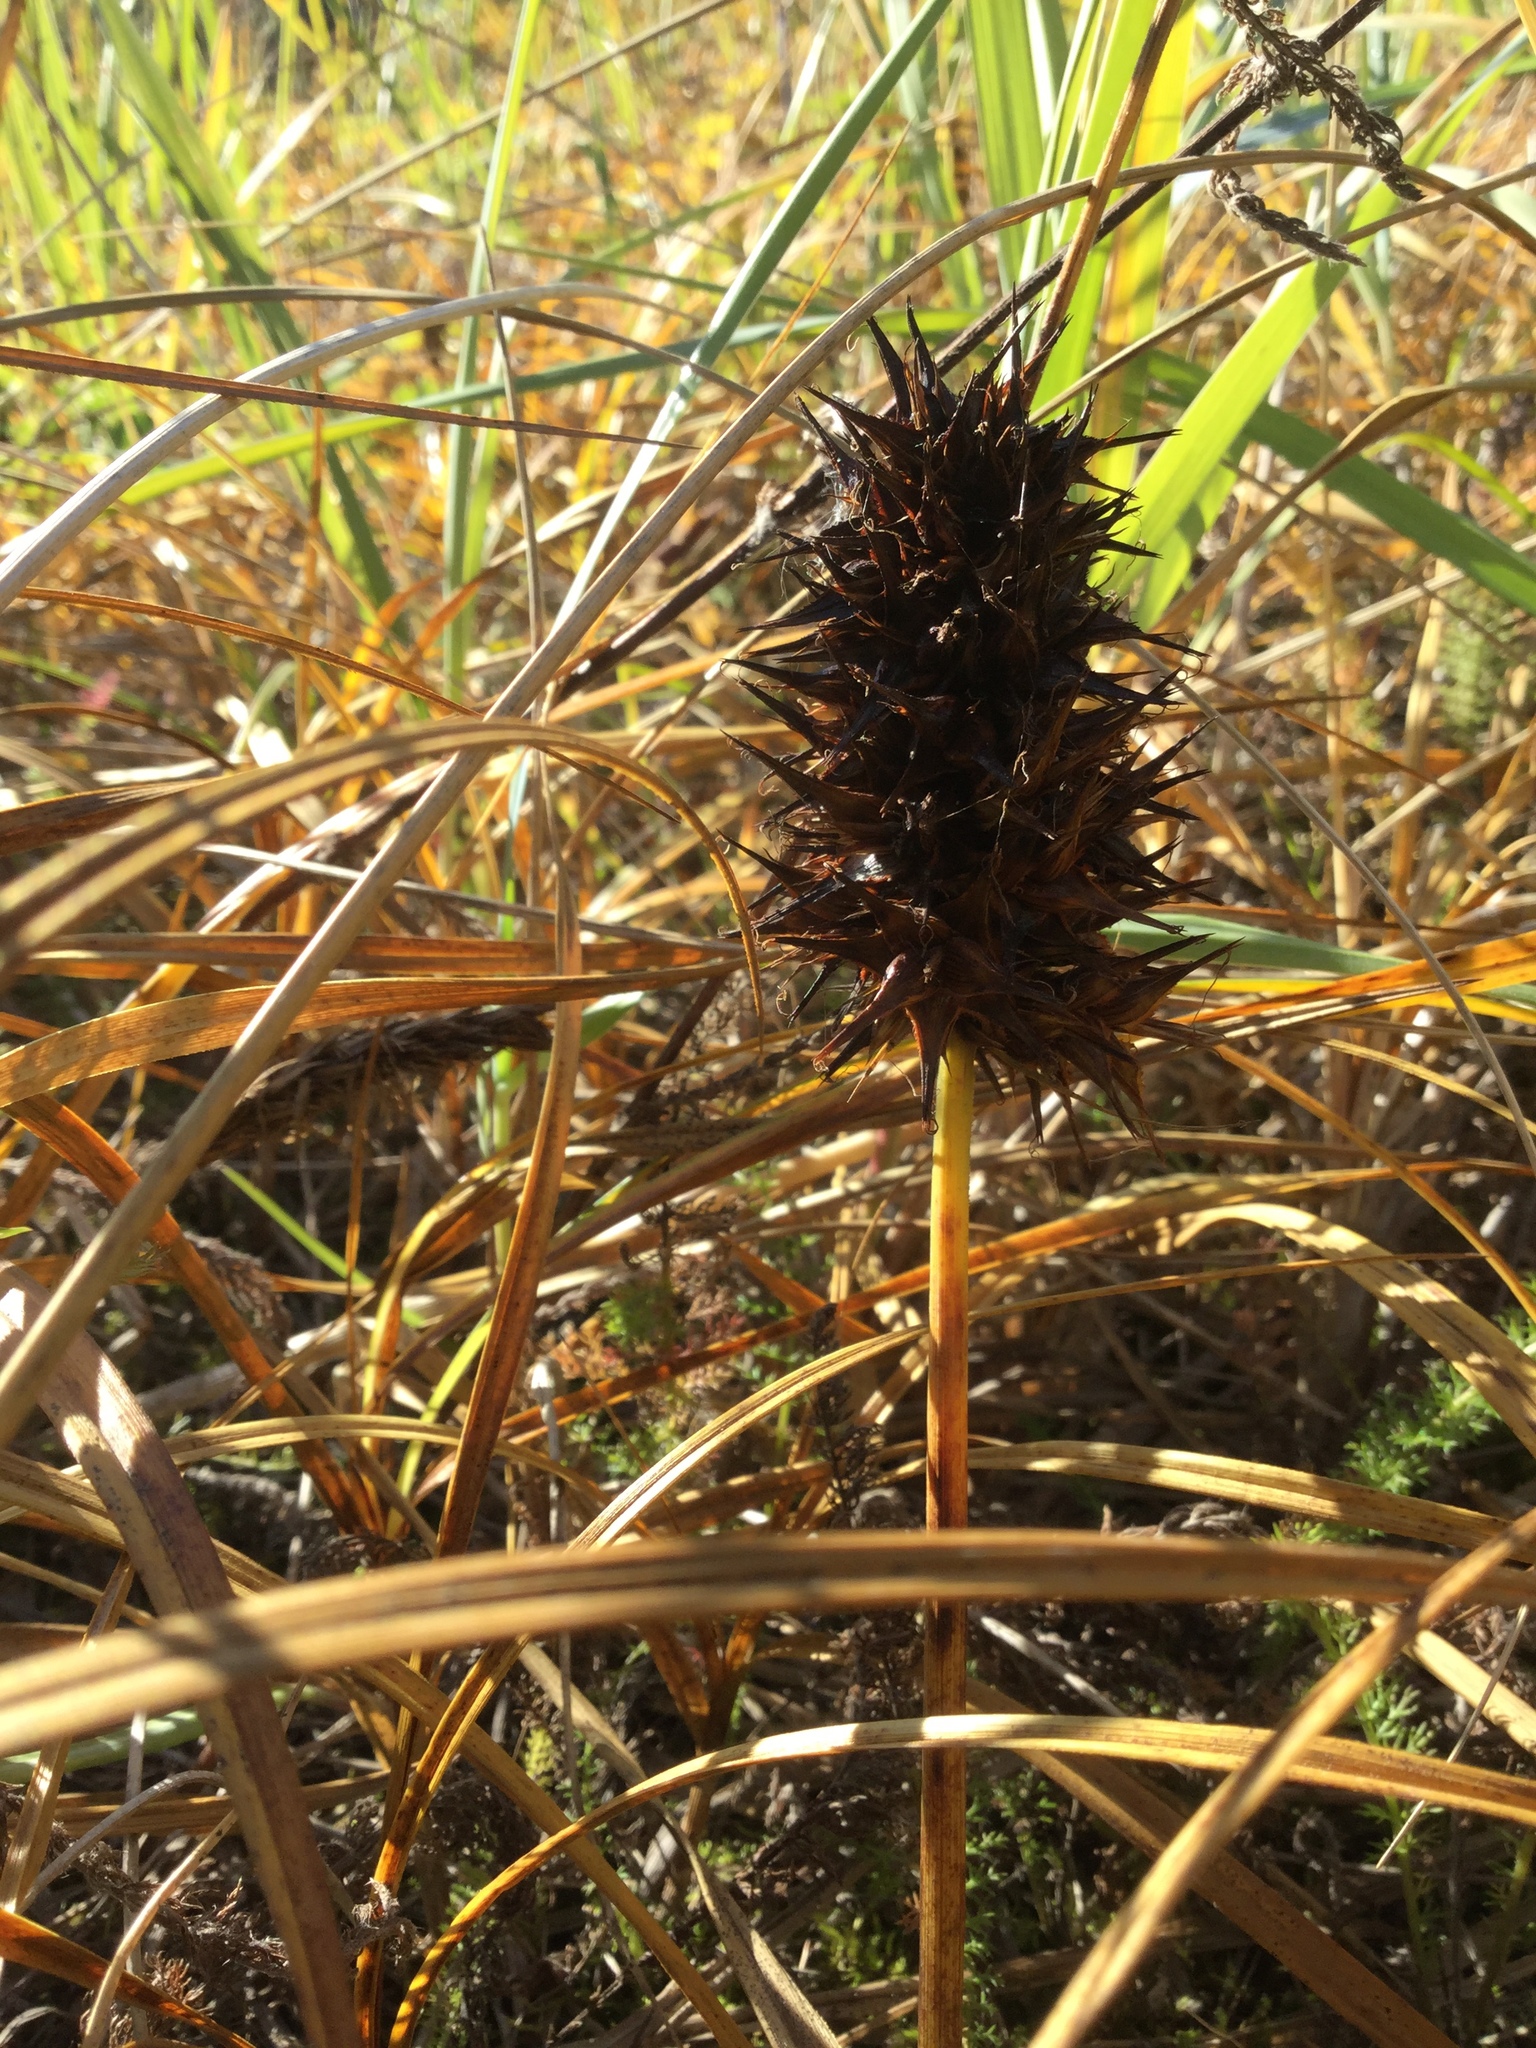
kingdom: Plantae
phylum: Tracheophyta
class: Liliopsida
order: Poales
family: Cyperaceae
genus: Carex
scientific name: Carex macrocephala
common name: Large-head sedge
